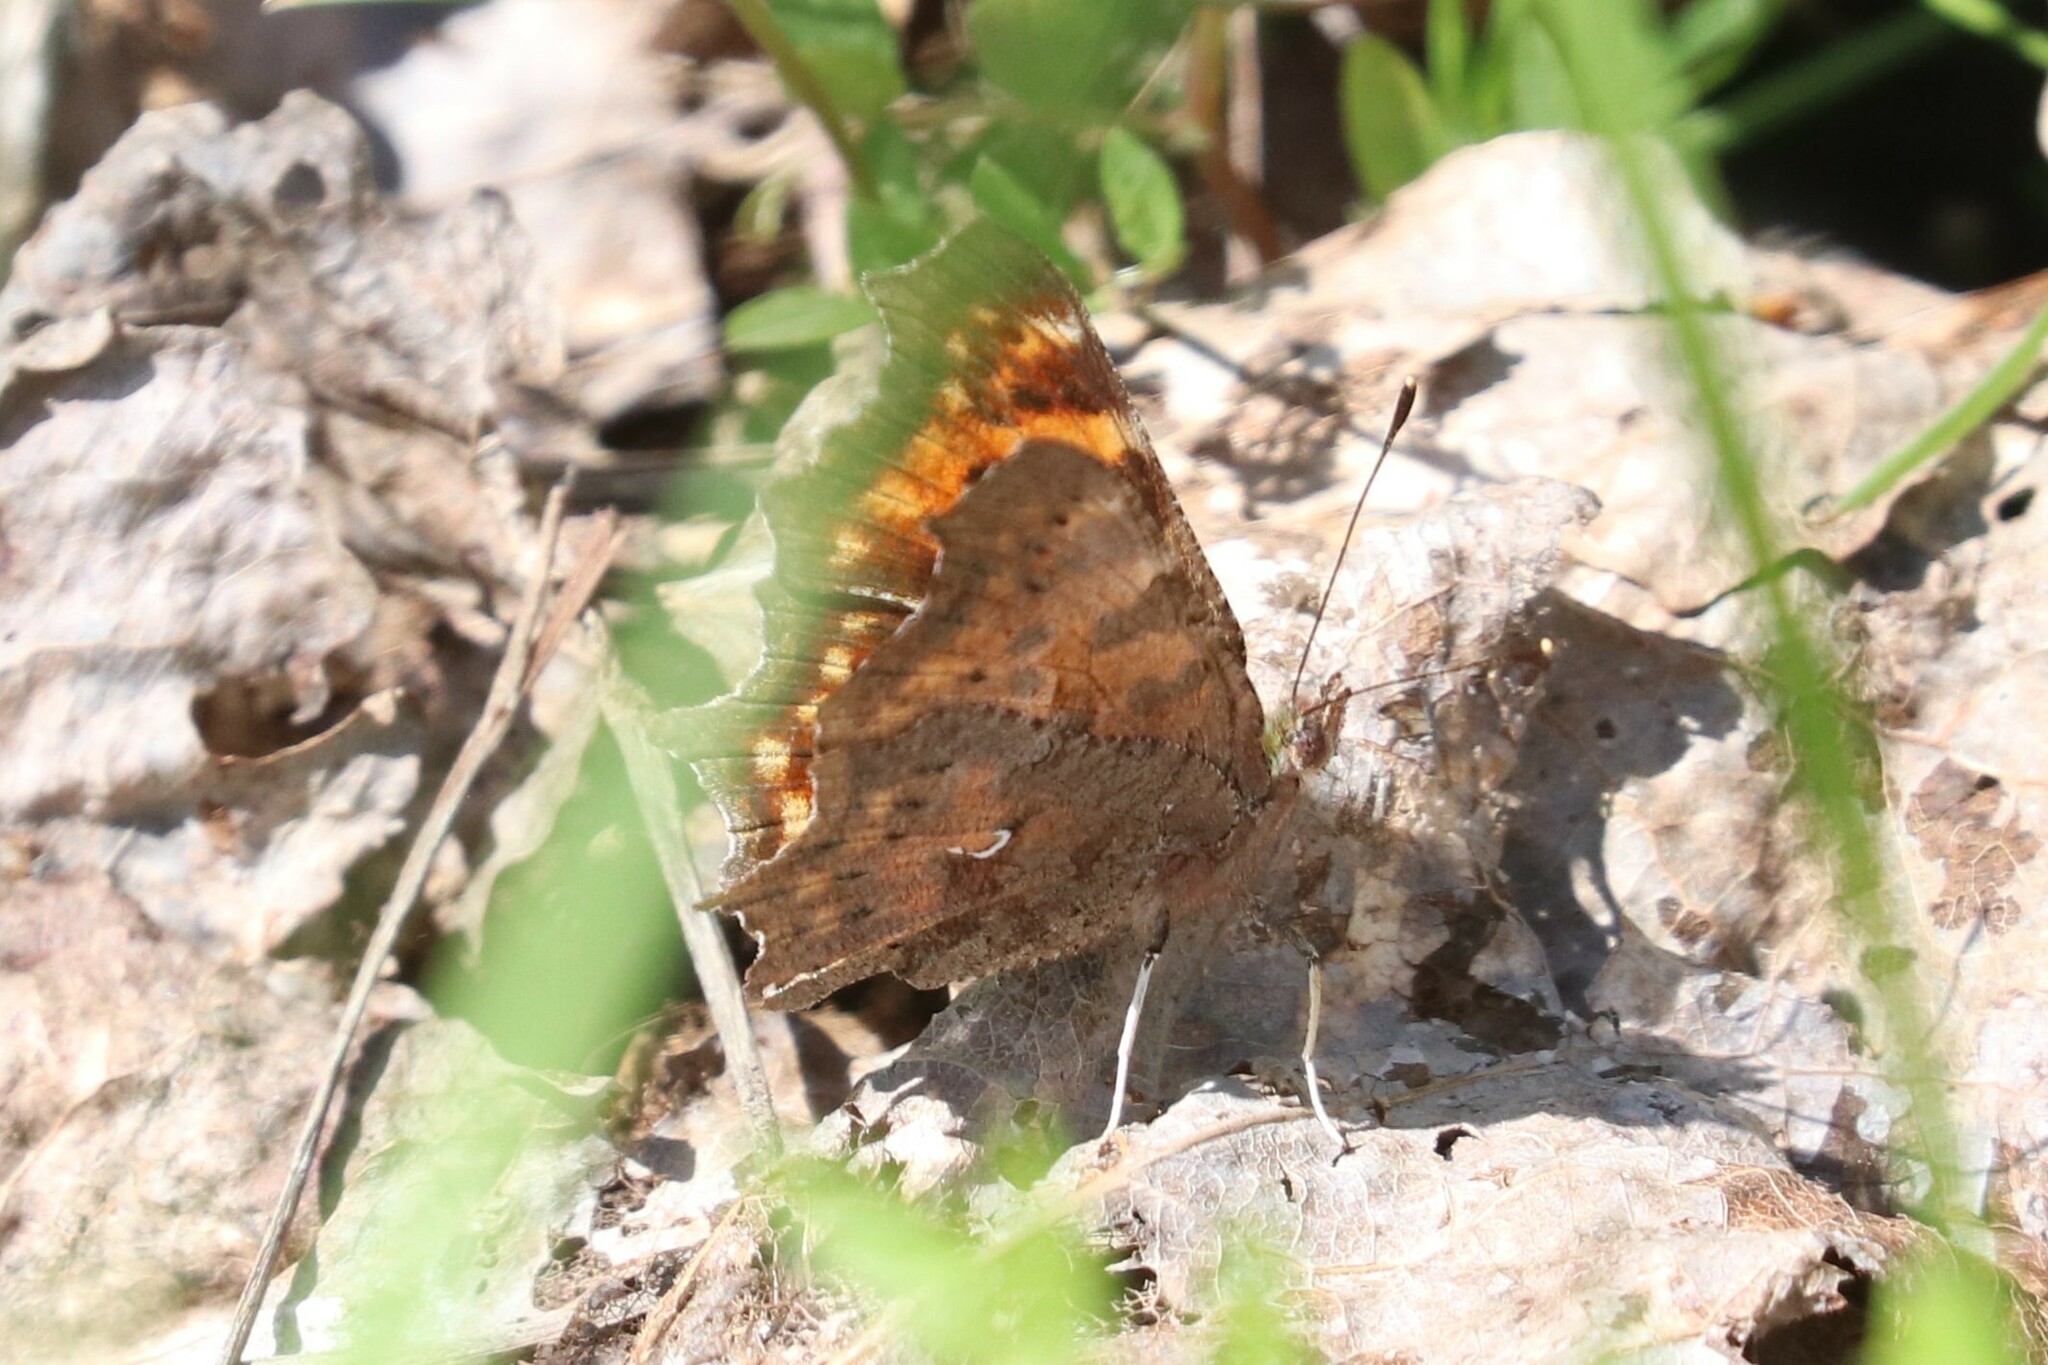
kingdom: Animalia
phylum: Arthropoda
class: Insecta
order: Lepidoptera
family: Nymphalidae
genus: Polygonia
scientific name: Polygonia c-album
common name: Comma
